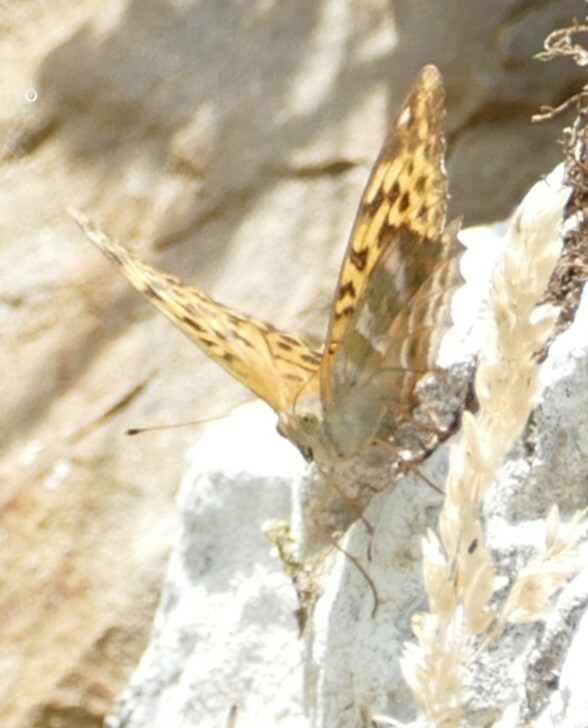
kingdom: Animalia
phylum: Arthropoda
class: Insecta
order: Lepidoptera
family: Nymphalidae
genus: Argynnis
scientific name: Argynnis paphia
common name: Silver-washed fritillary
